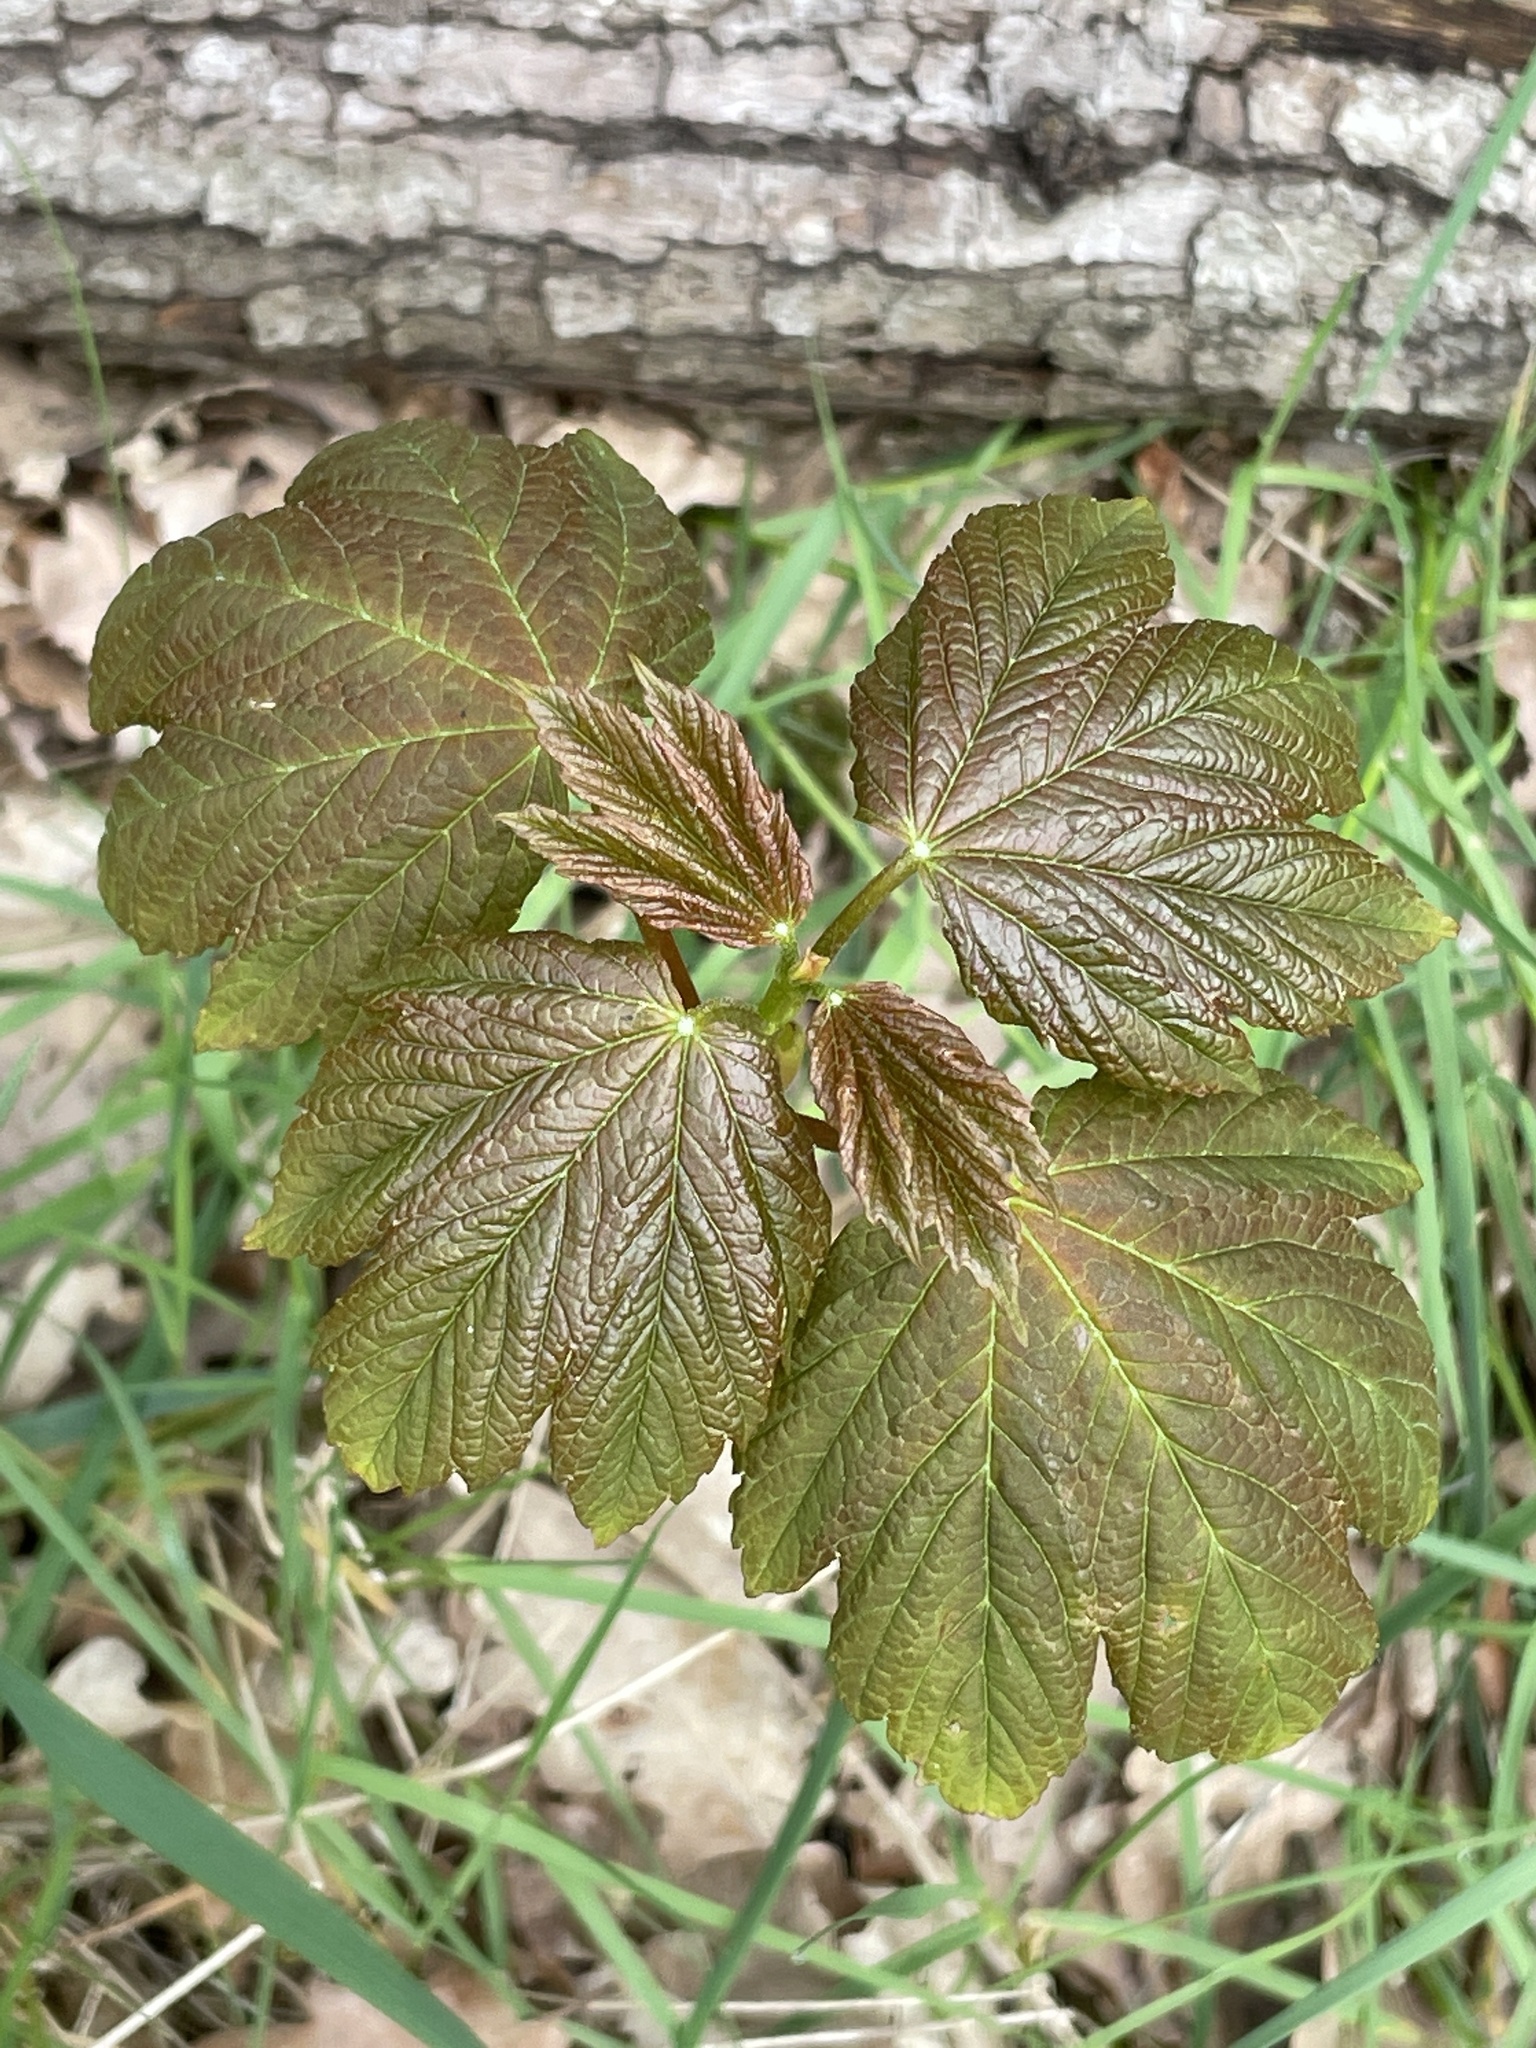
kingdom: Plantae
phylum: Tracheophyta
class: Magnoliopsida
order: Sapindales
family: Sapindaceae
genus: Acer
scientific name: Acer pseudoplatanus
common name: Sycamore
